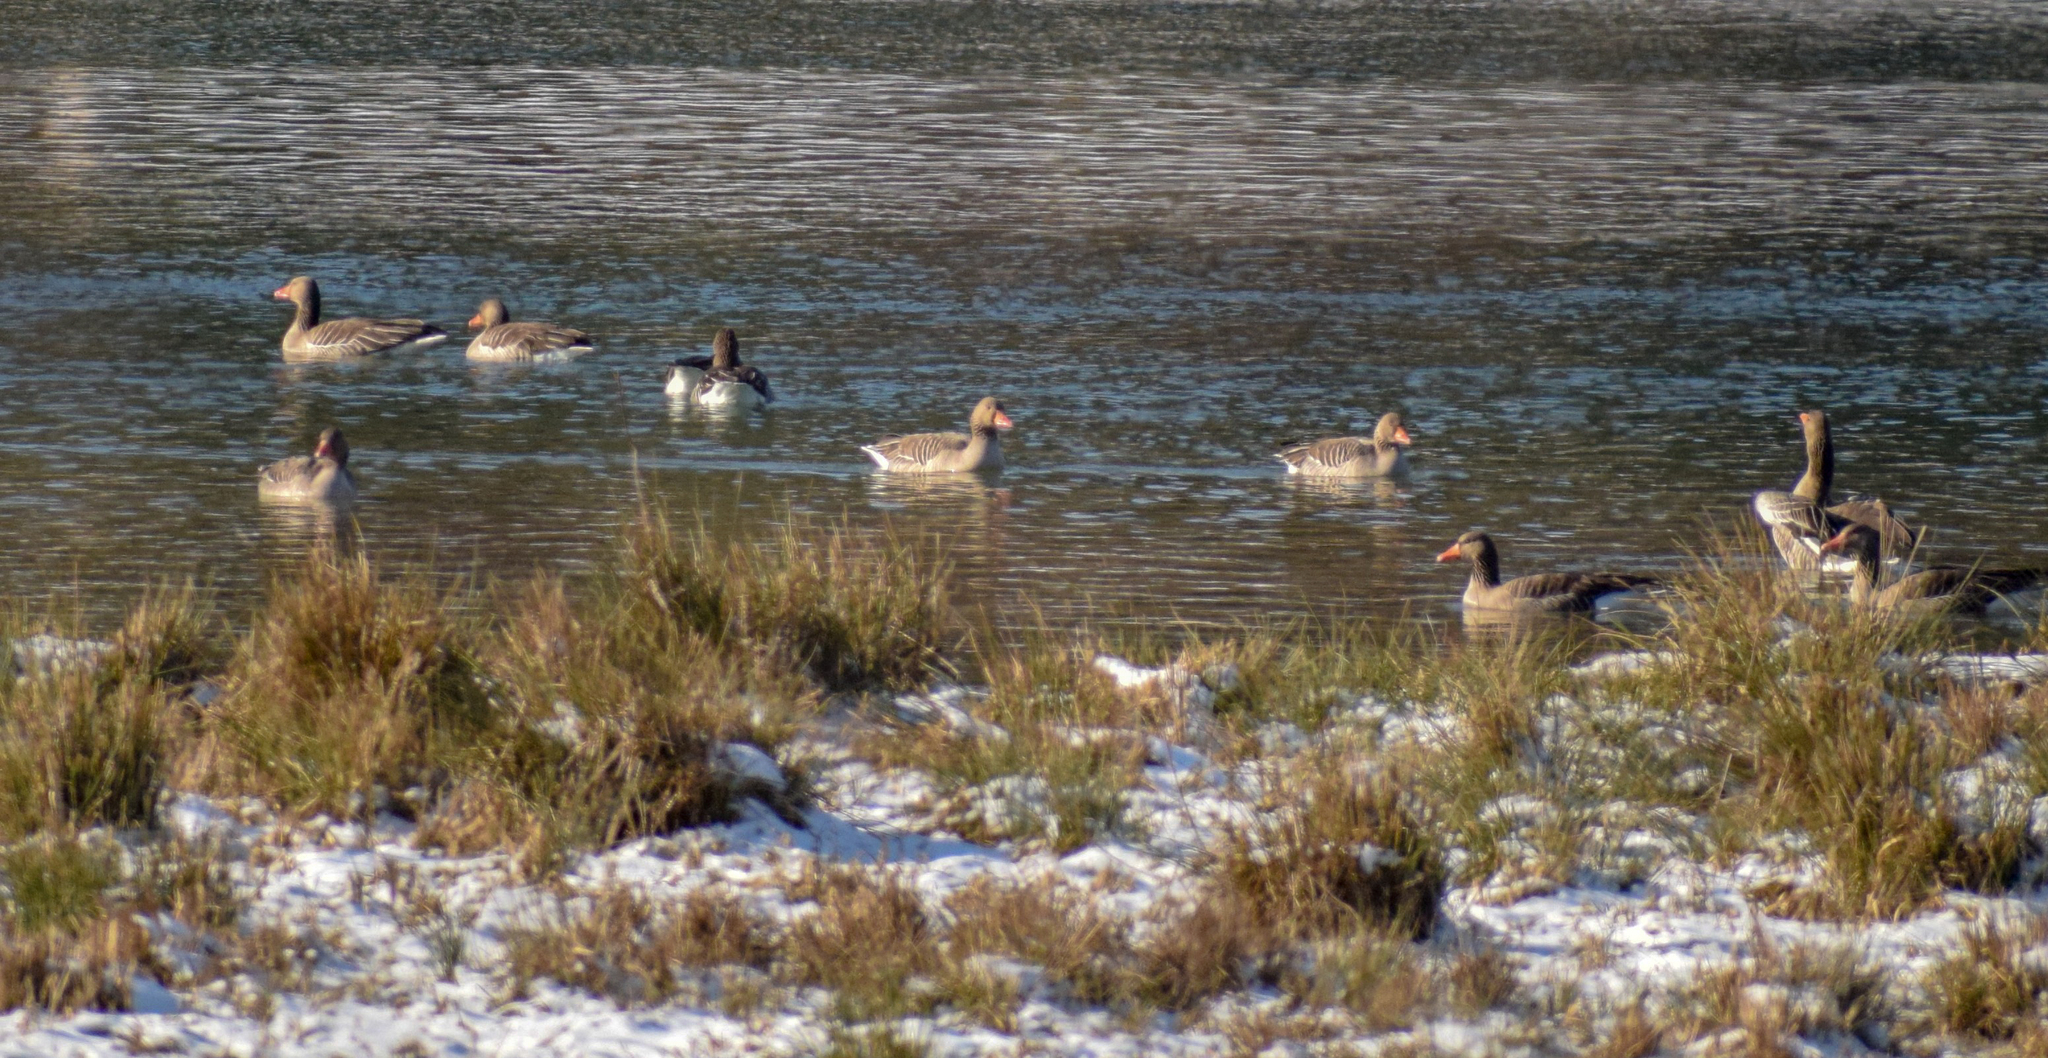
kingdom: Animalia
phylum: Chordata
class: Aves
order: Anseriformes
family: Anatidae
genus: Anser
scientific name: Anser anser
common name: Greylag goose
